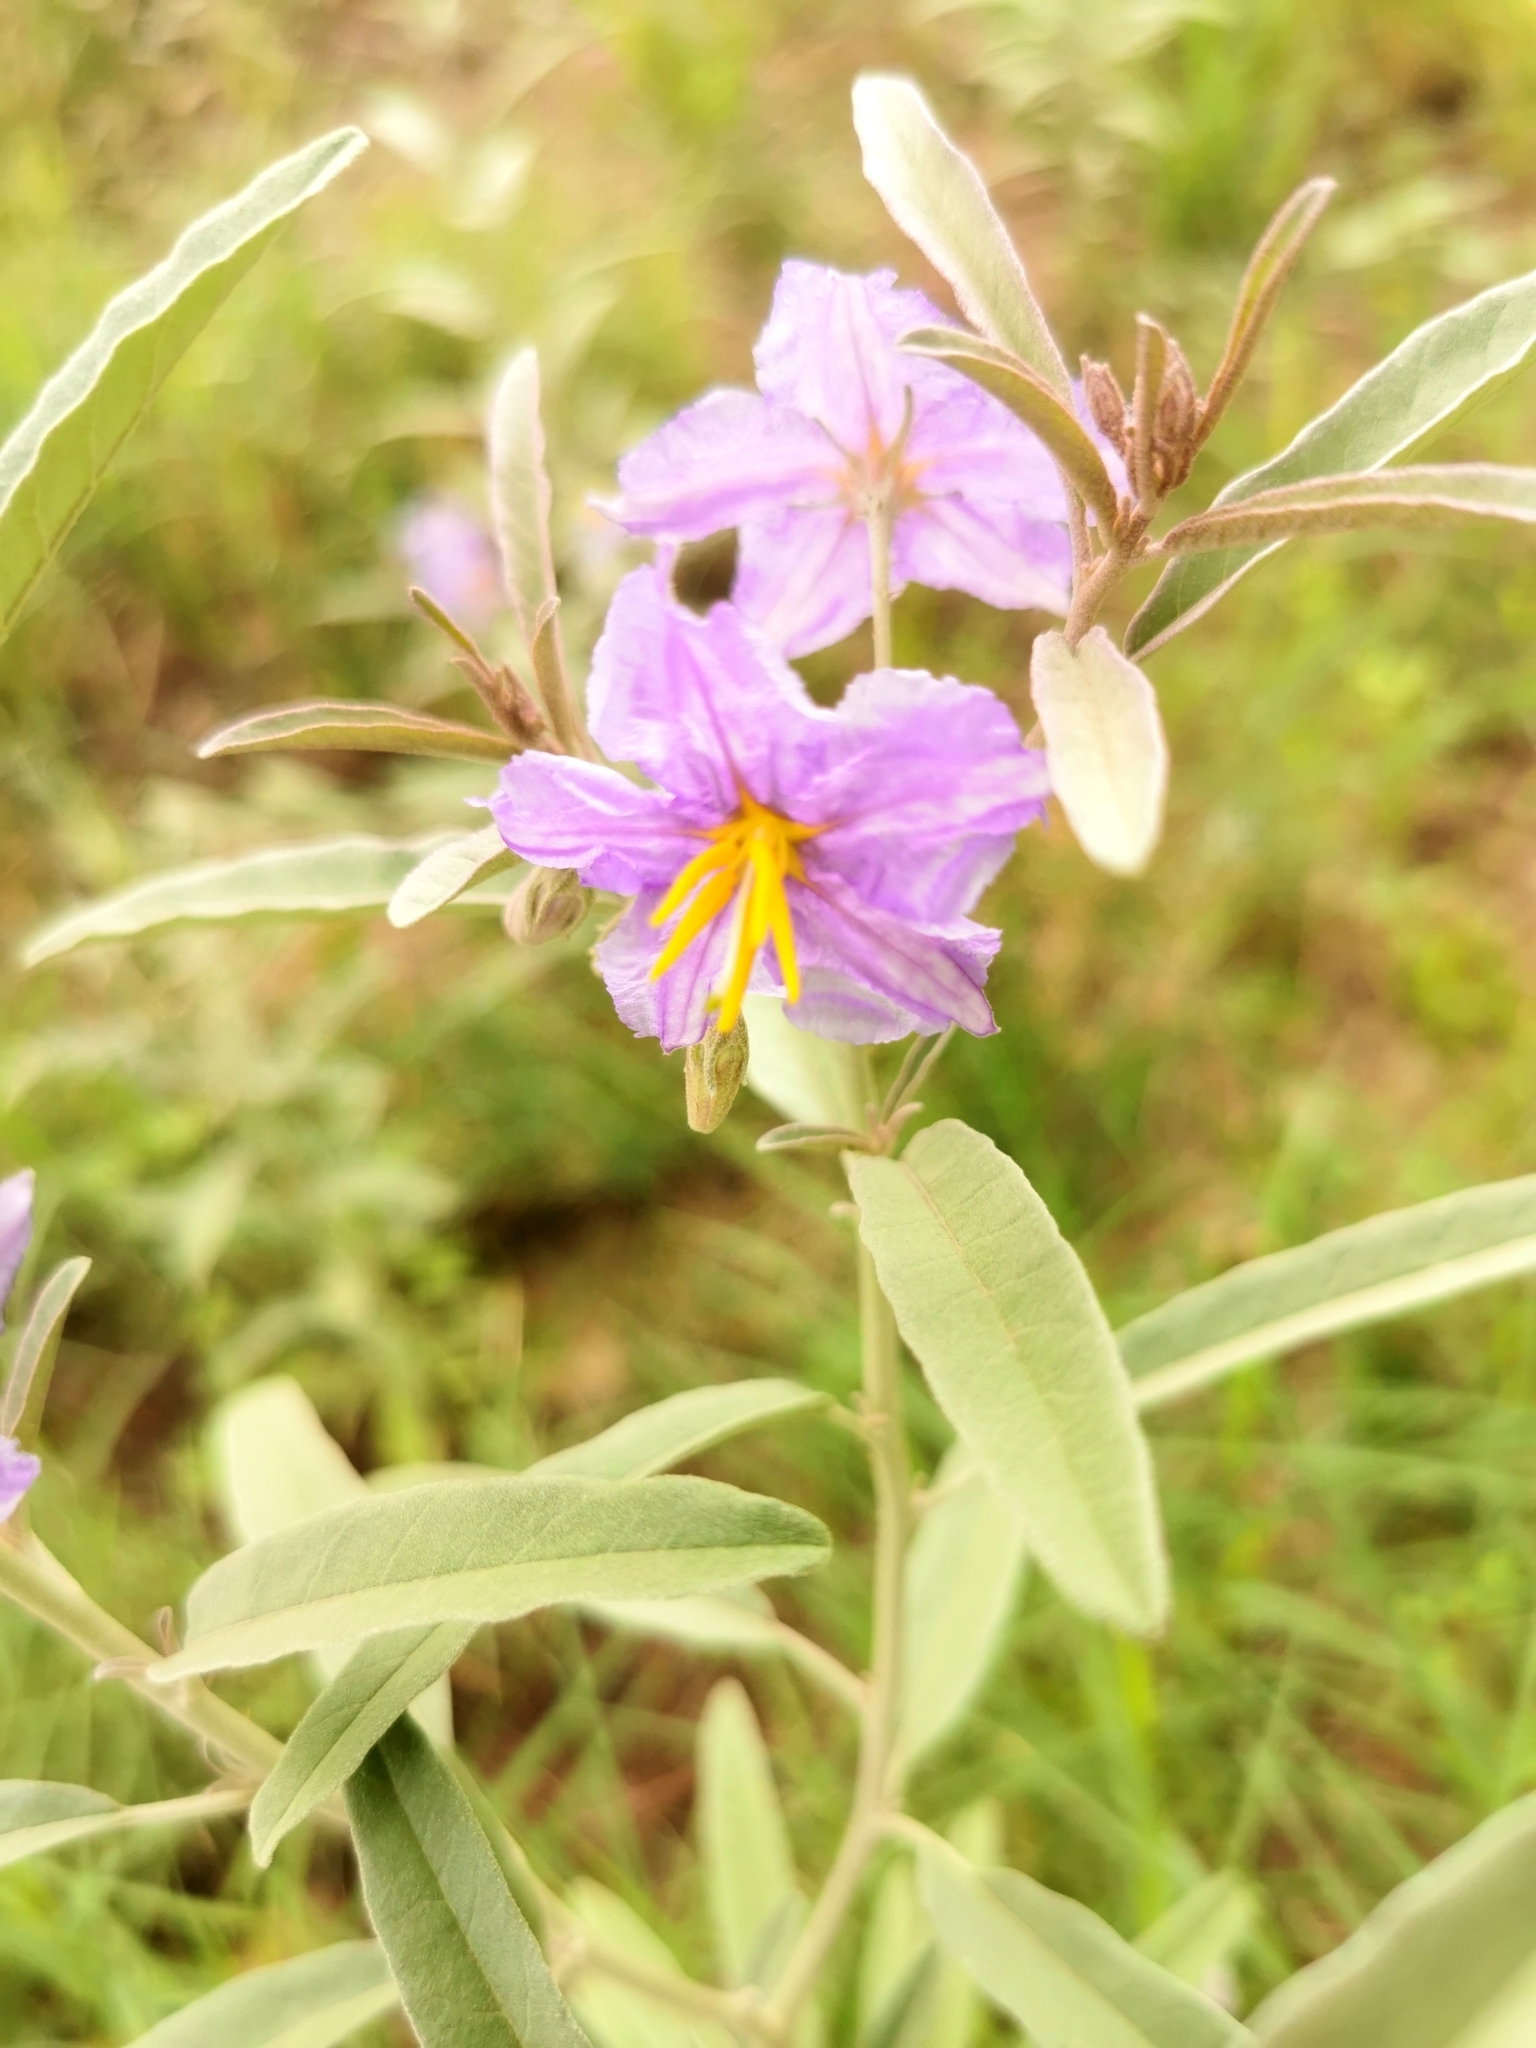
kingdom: Plantae
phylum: Tracheophyta
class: Magnoliopsida
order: Solanales
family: Solanaceae
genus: Solanum
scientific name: Solanum elaeagnifolium
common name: Silverleaf nightshade
